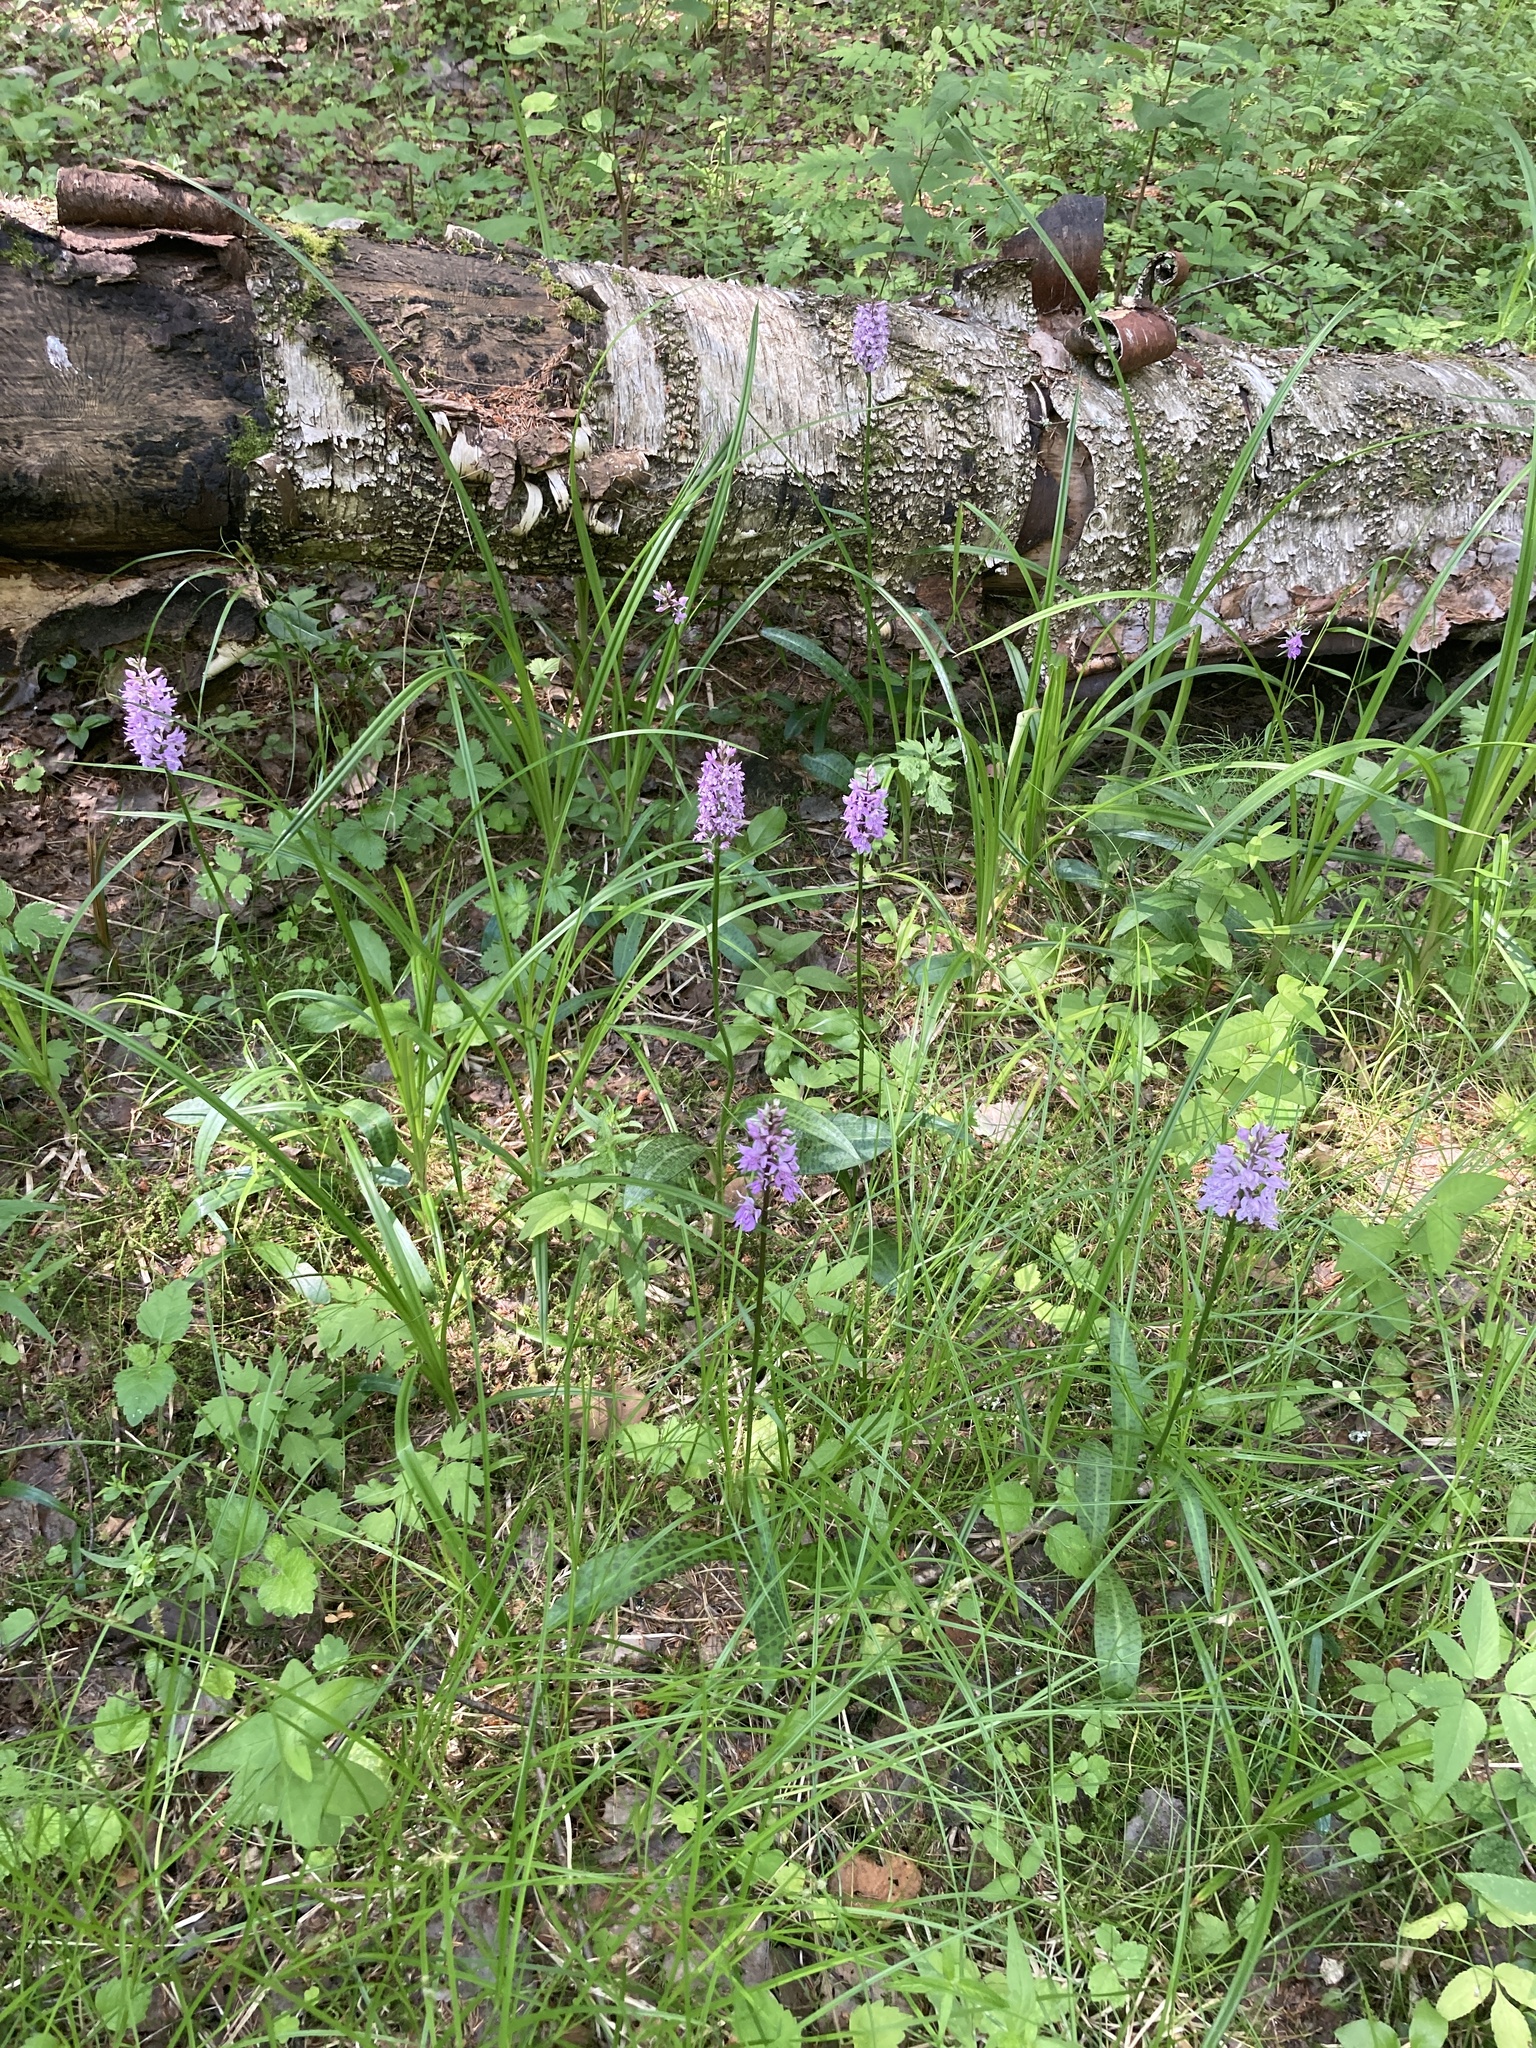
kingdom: Plantae
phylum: Tracheophyta
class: Liliopsida
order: Asparagales
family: Orchidaceae
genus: Dactylorhiza
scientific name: Dactylorhiza maculata
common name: Heath spotted-orchid
